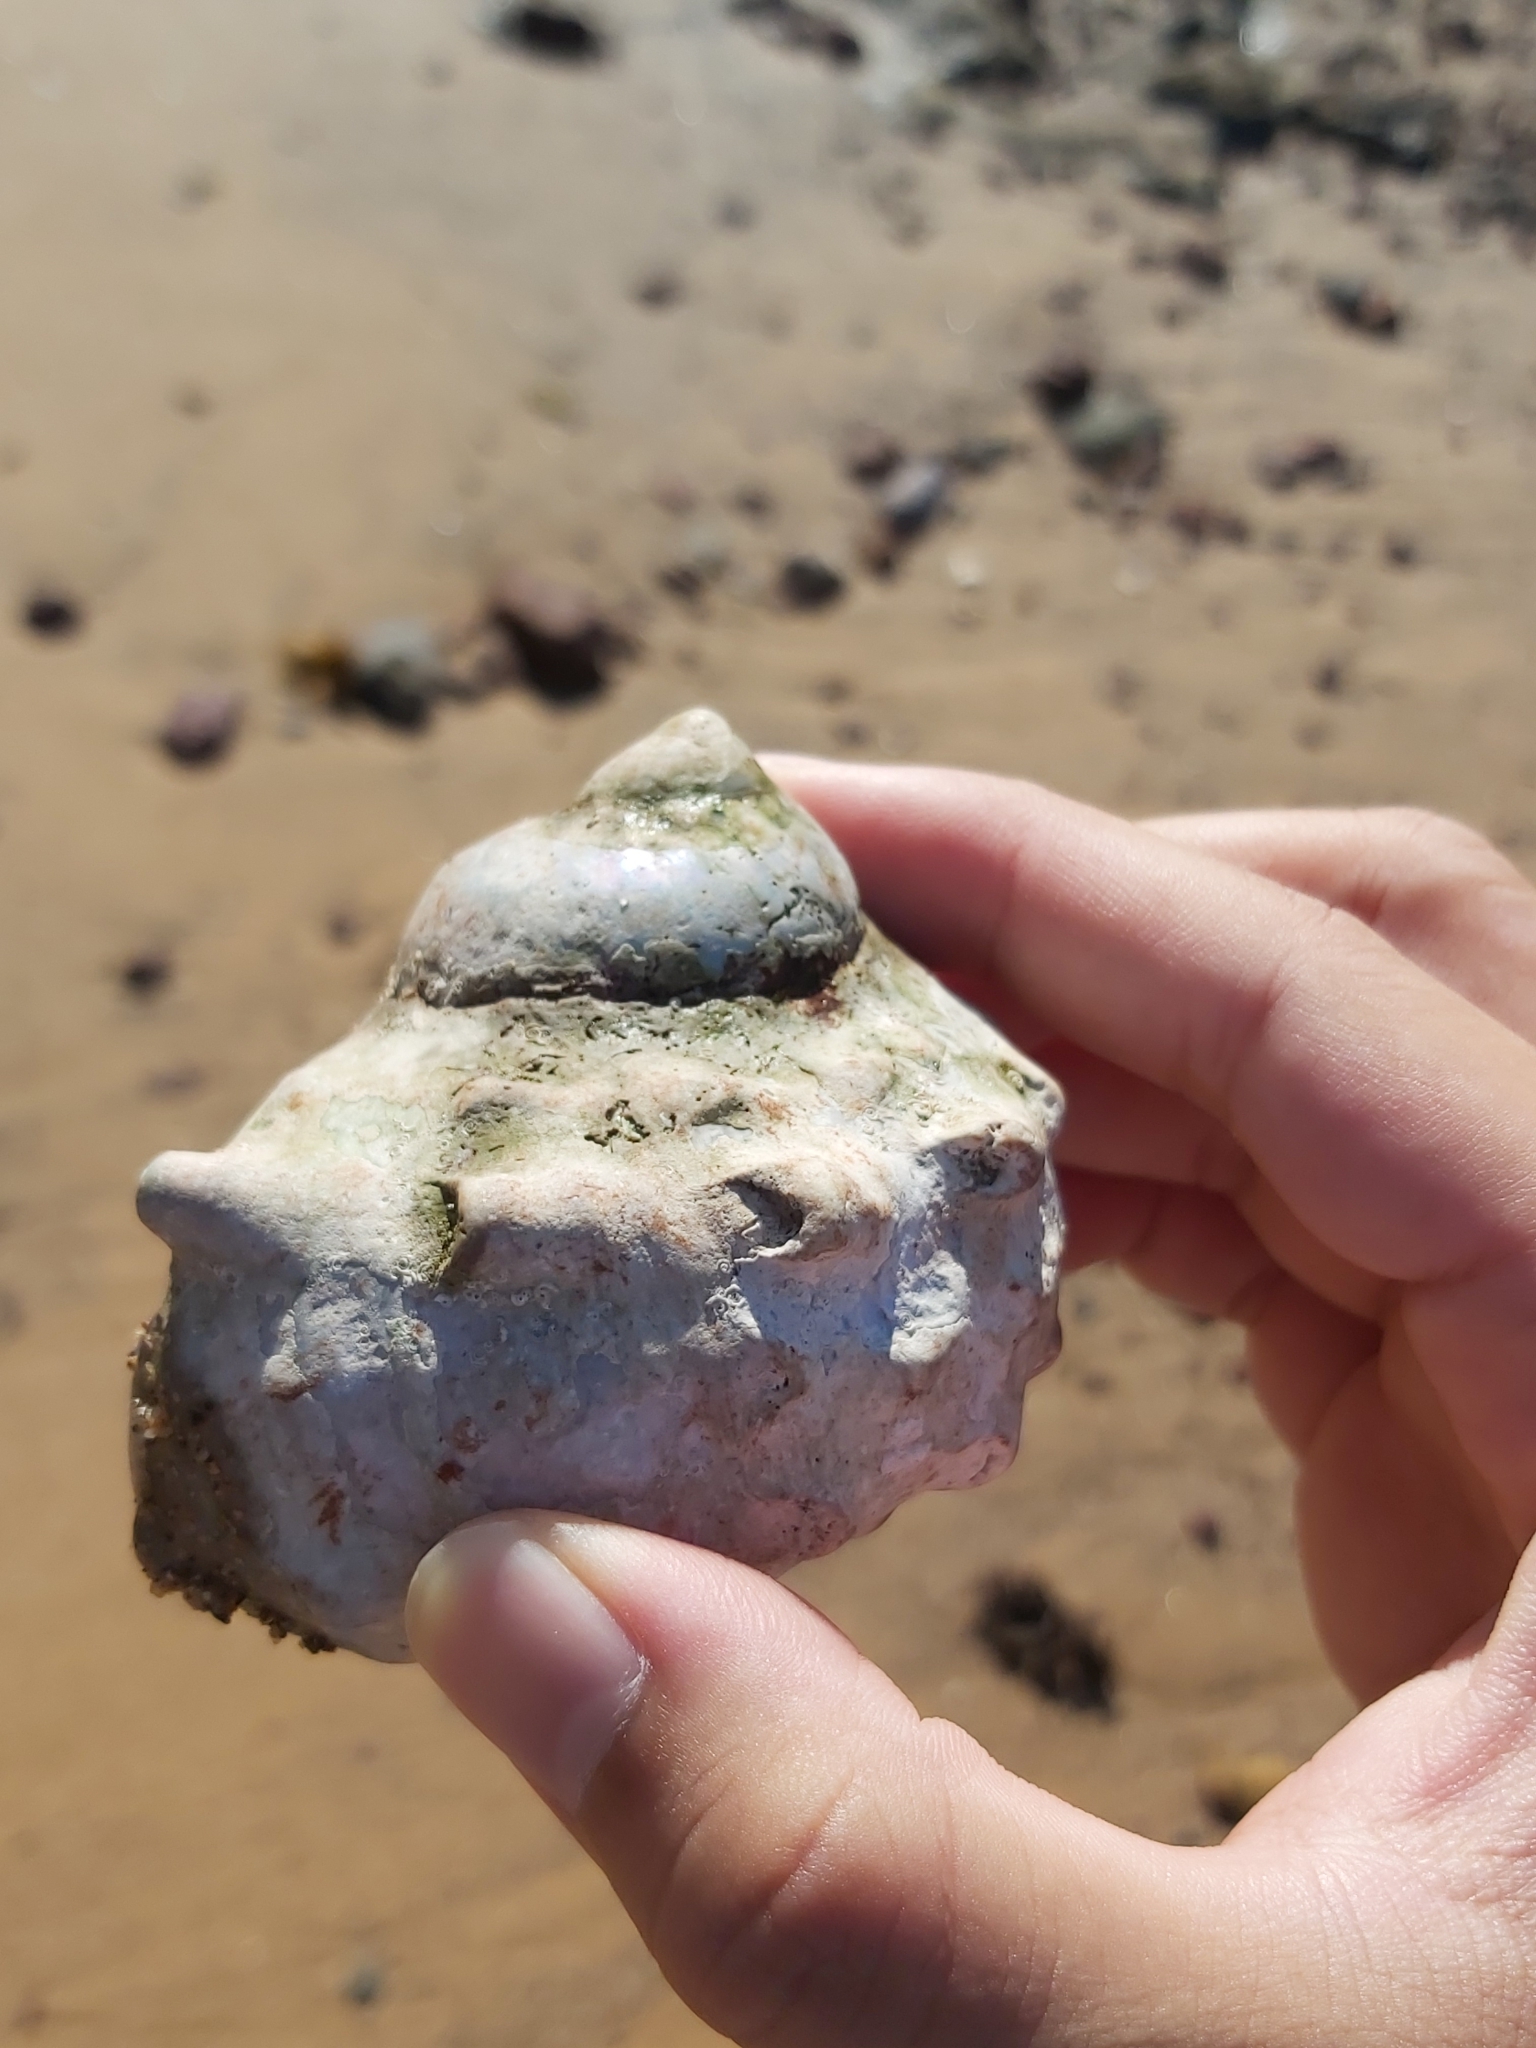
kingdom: Animalia
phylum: Mollusca
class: Gastropoda
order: Trochida
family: Turbinidae
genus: Turbo
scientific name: Turbo militaris
